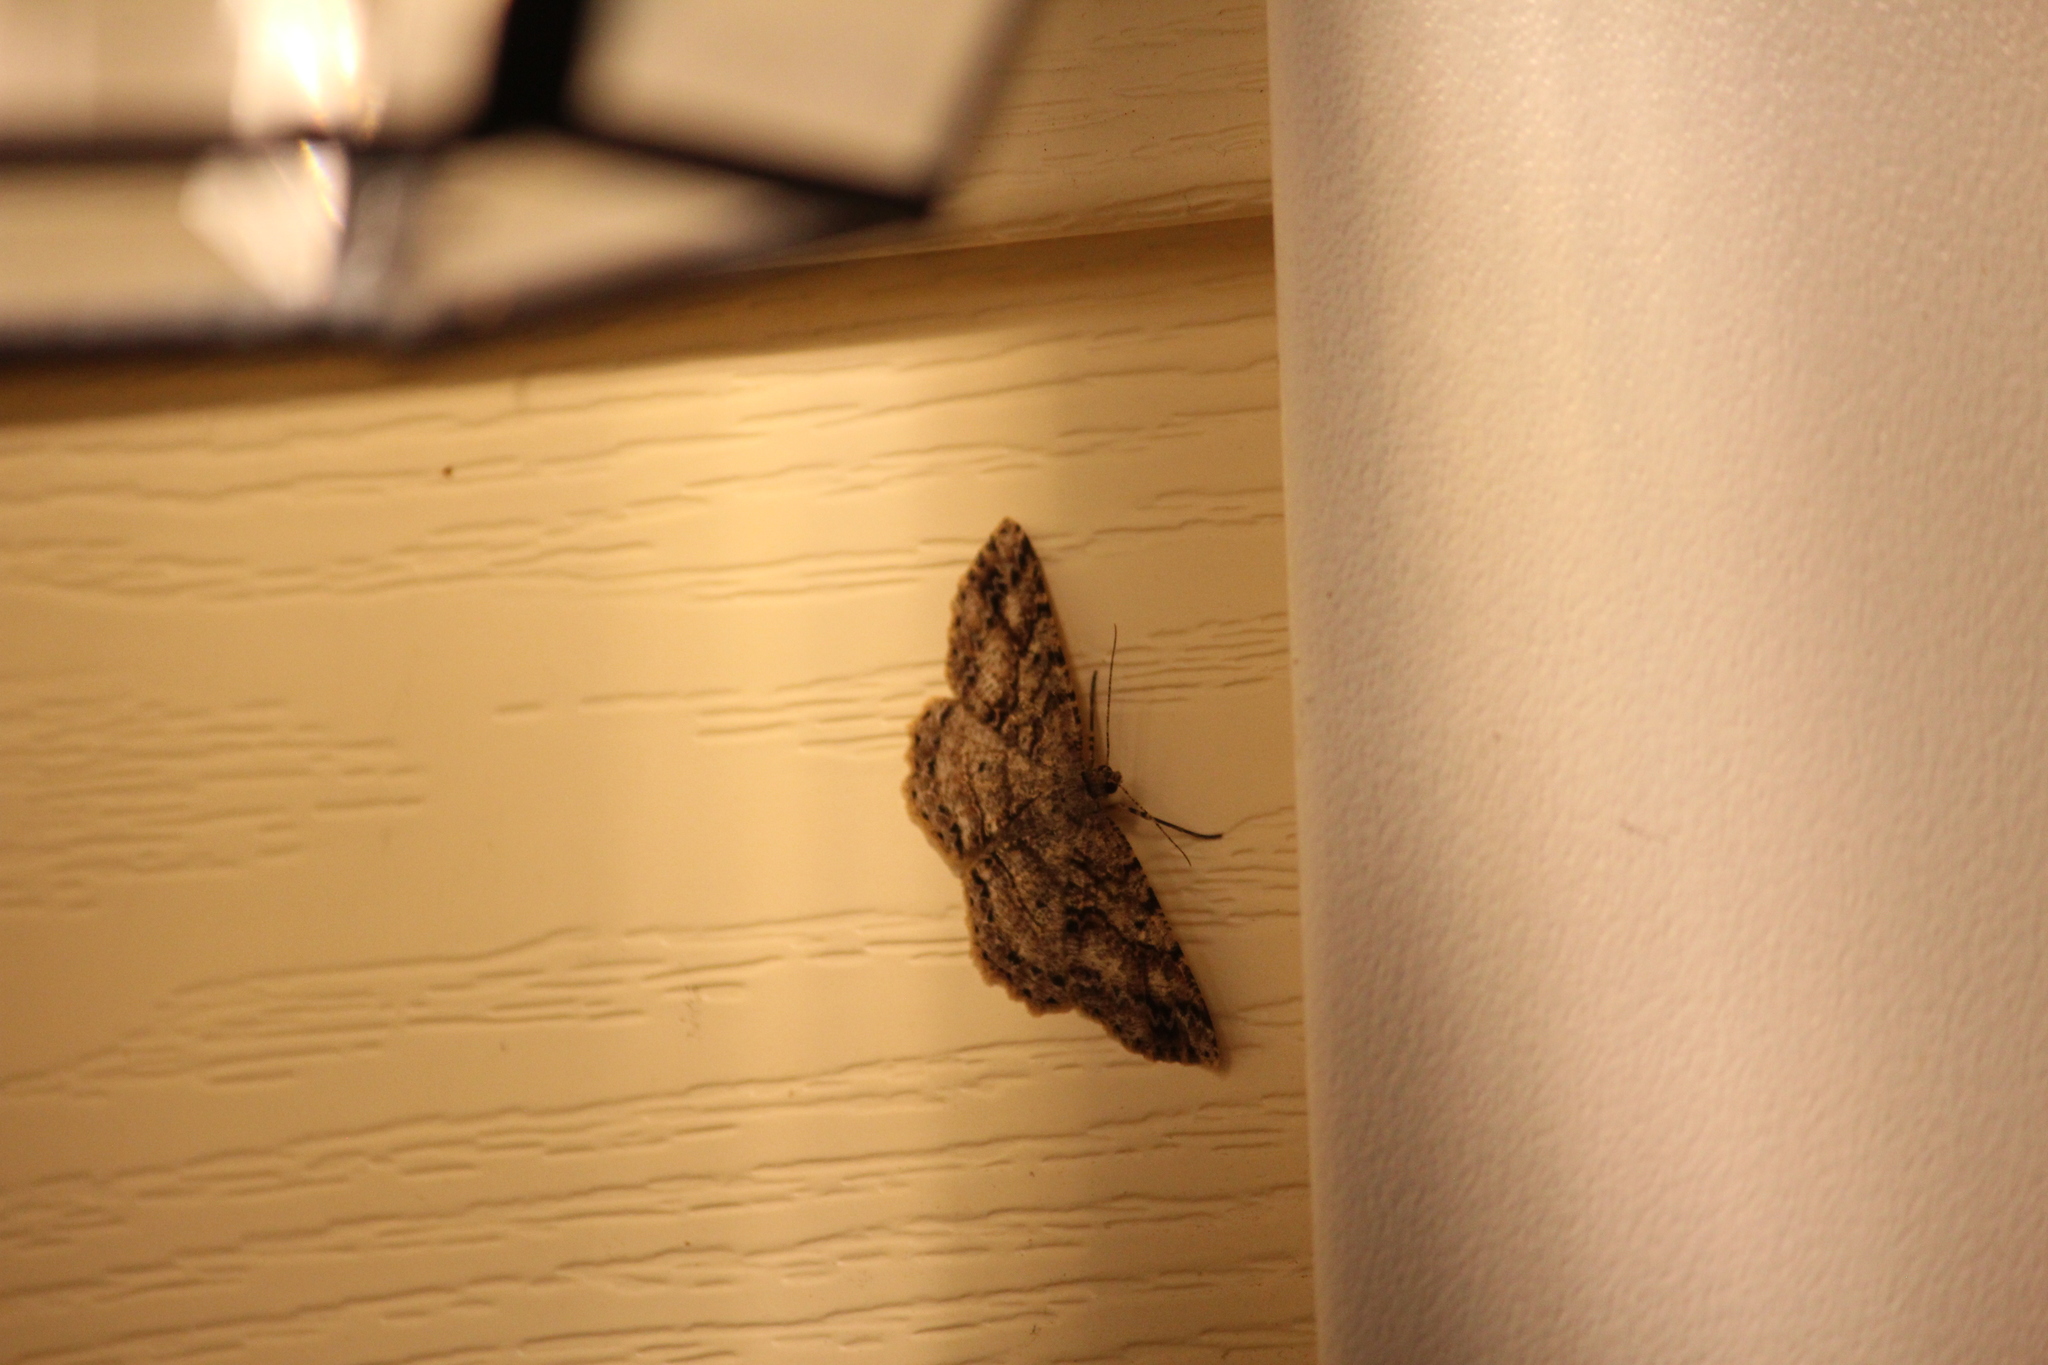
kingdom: Animalia
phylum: Arthropoda
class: Insecta
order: Lepidoptera
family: Geometridae
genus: Melanolophia
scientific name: Melanolophia canadaria
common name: Canadian melanolophia
